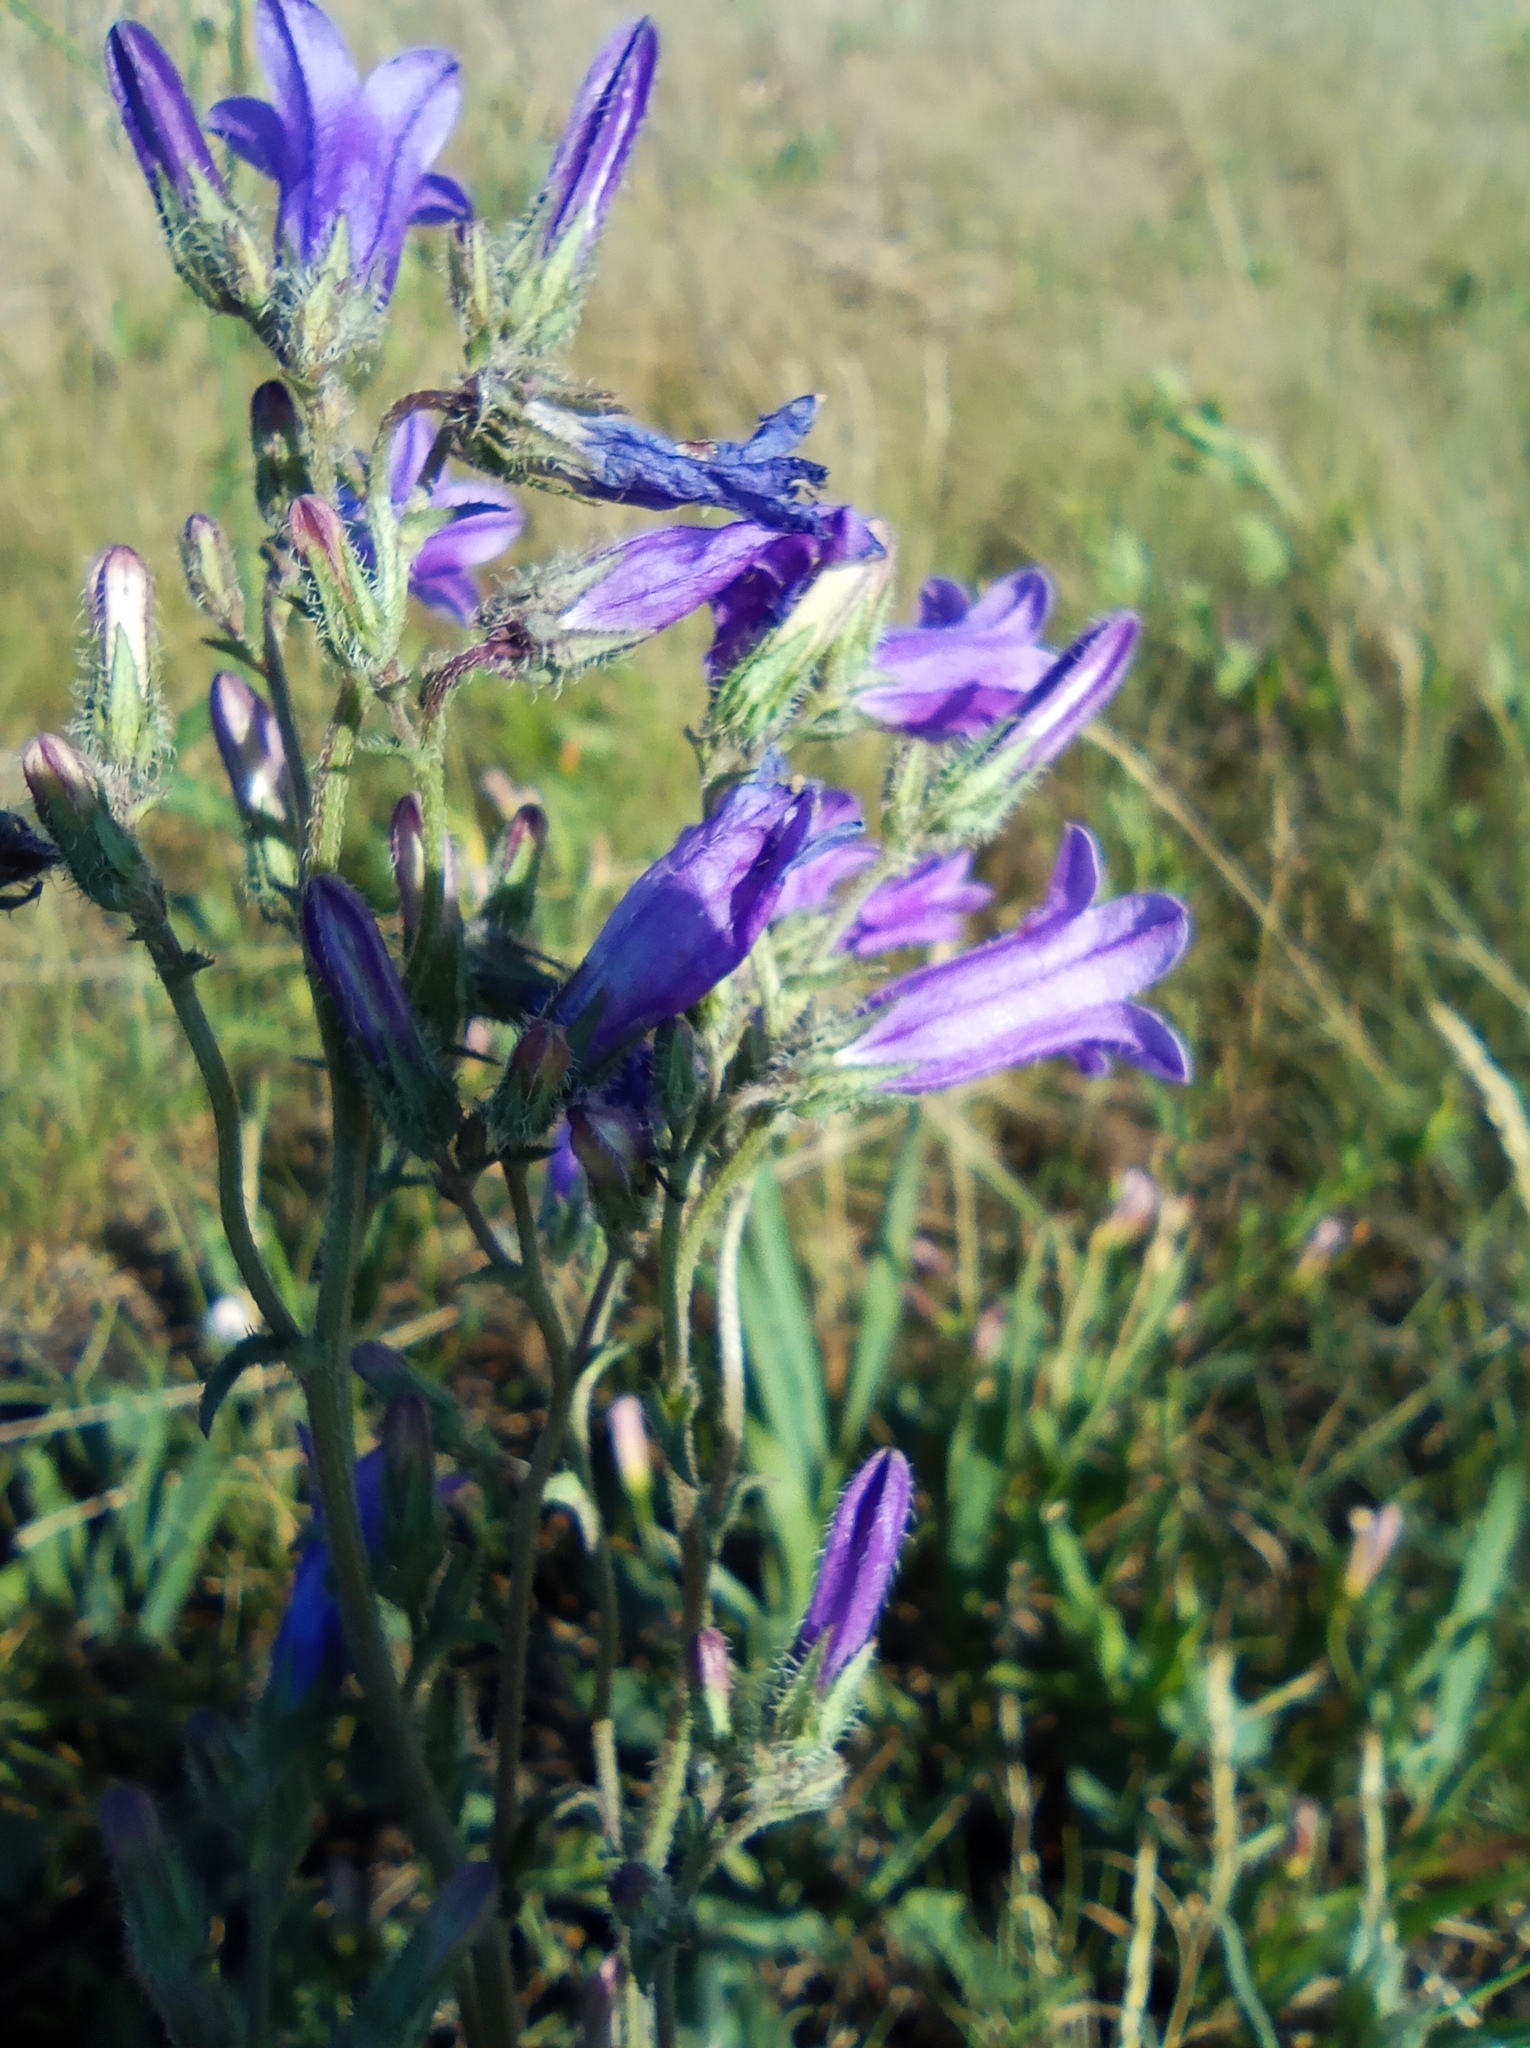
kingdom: Plantae
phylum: Tracheophyta
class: Magnoliopsida
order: Asterales
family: Campanulaceae
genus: Campanula
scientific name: Campanula sibirica
